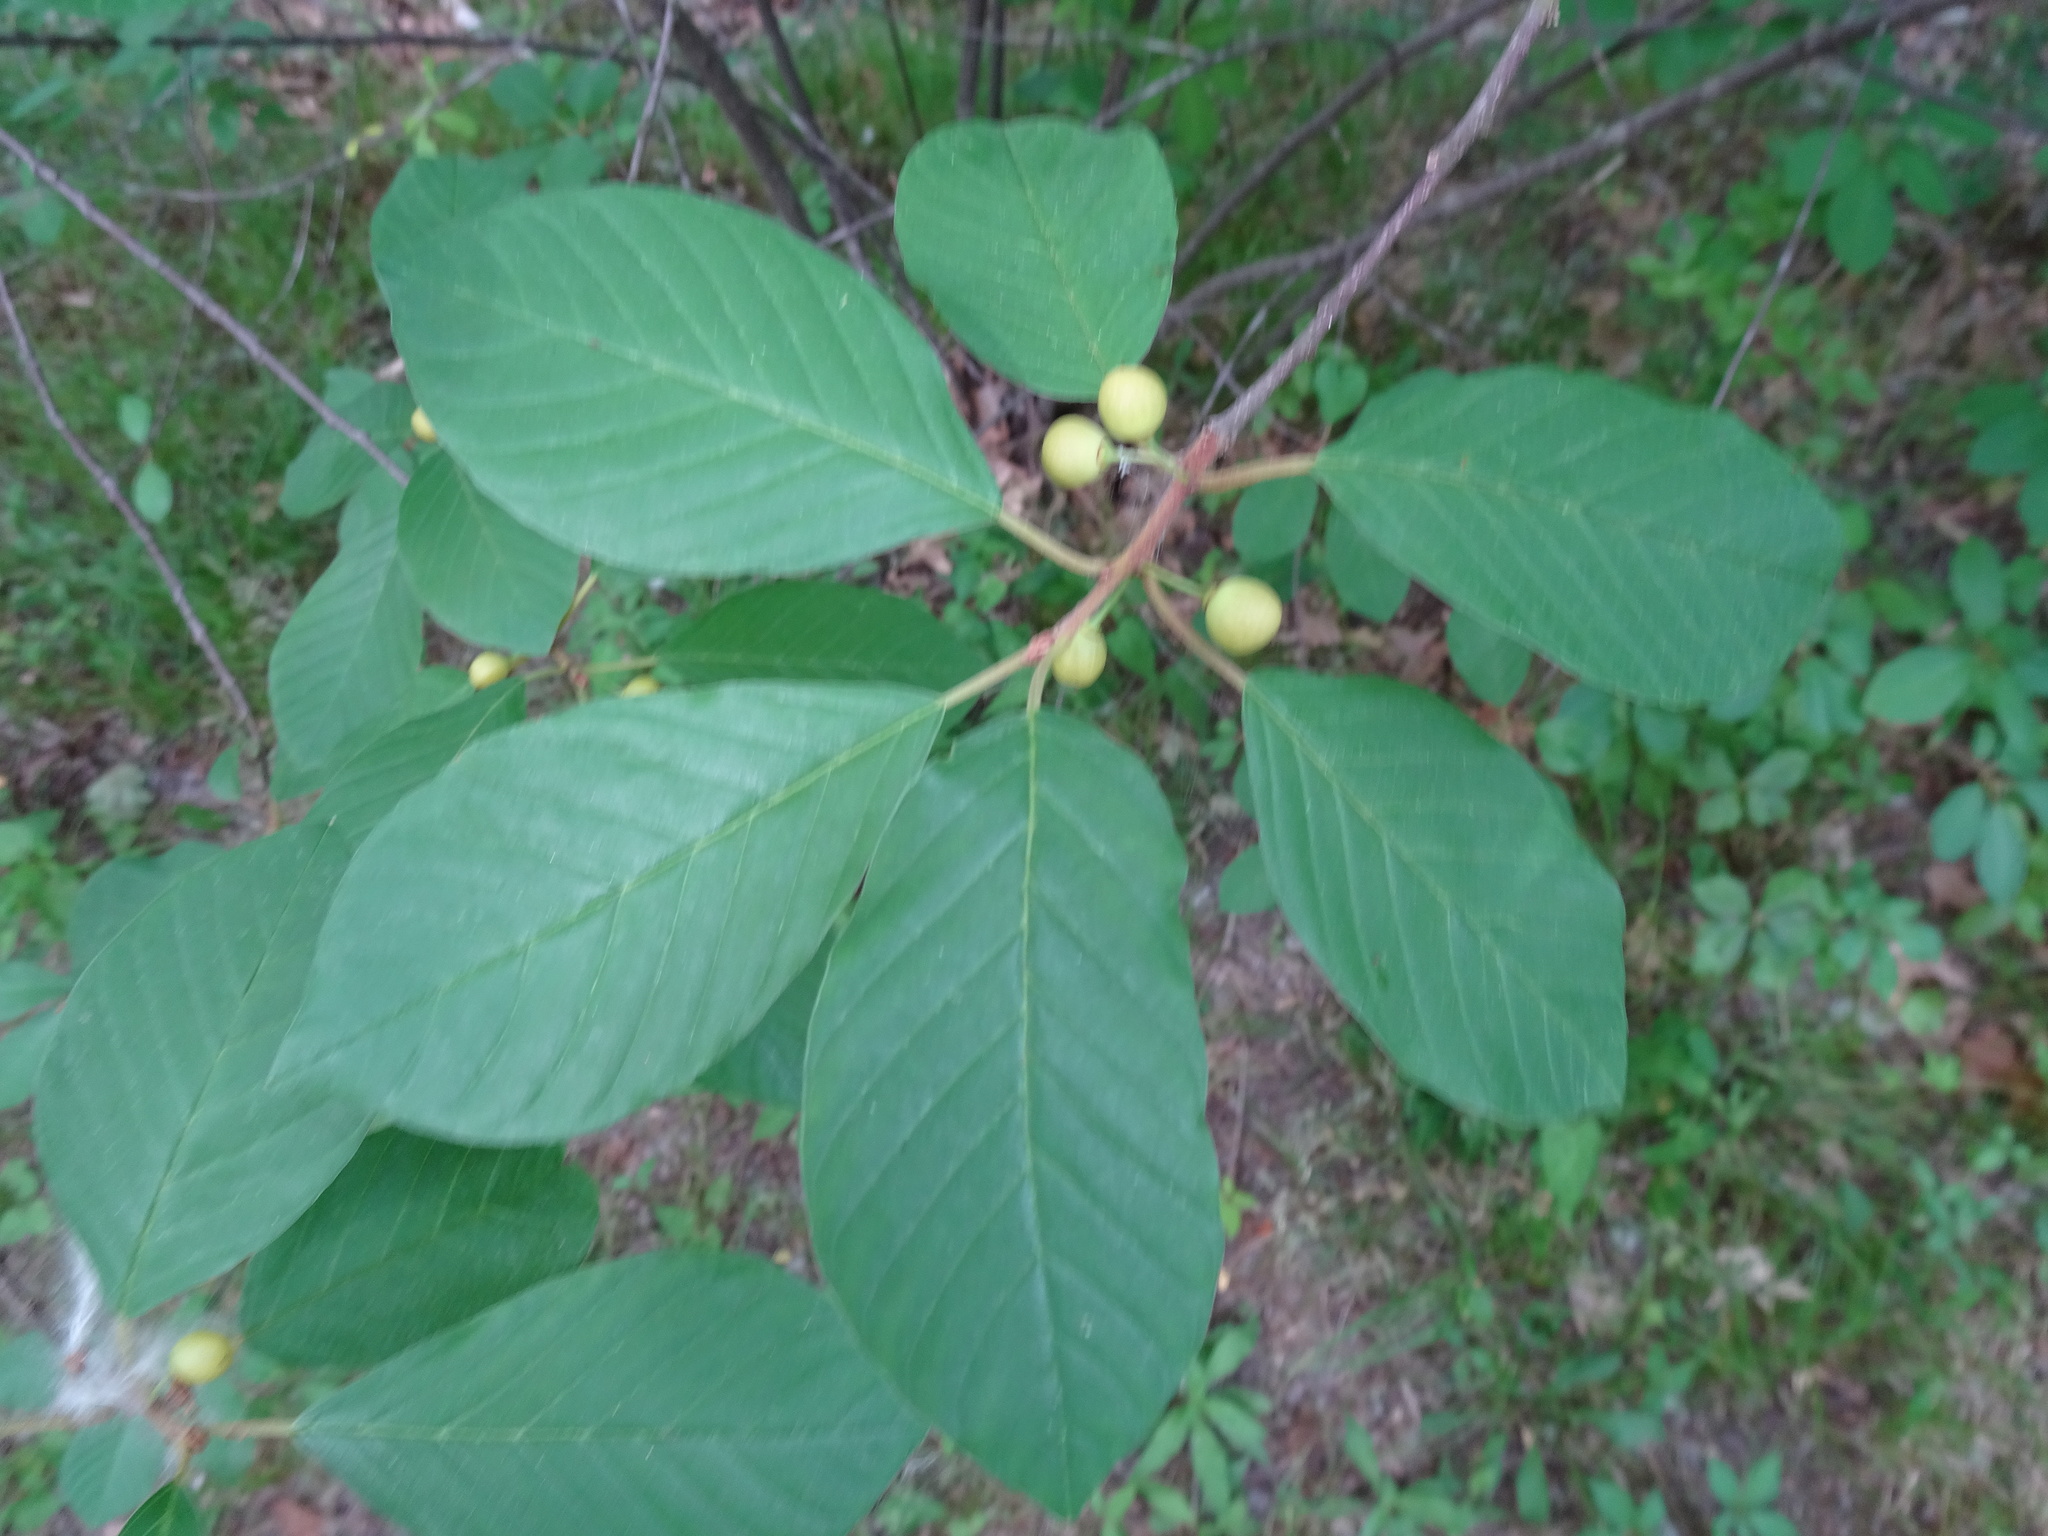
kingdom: Plantae
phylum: Tracheophyta
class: Magnoliopsida
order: Rosales
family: Rhamnaceae
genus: Frangula
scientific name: Frangula alnus
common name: Alder buckthorn
